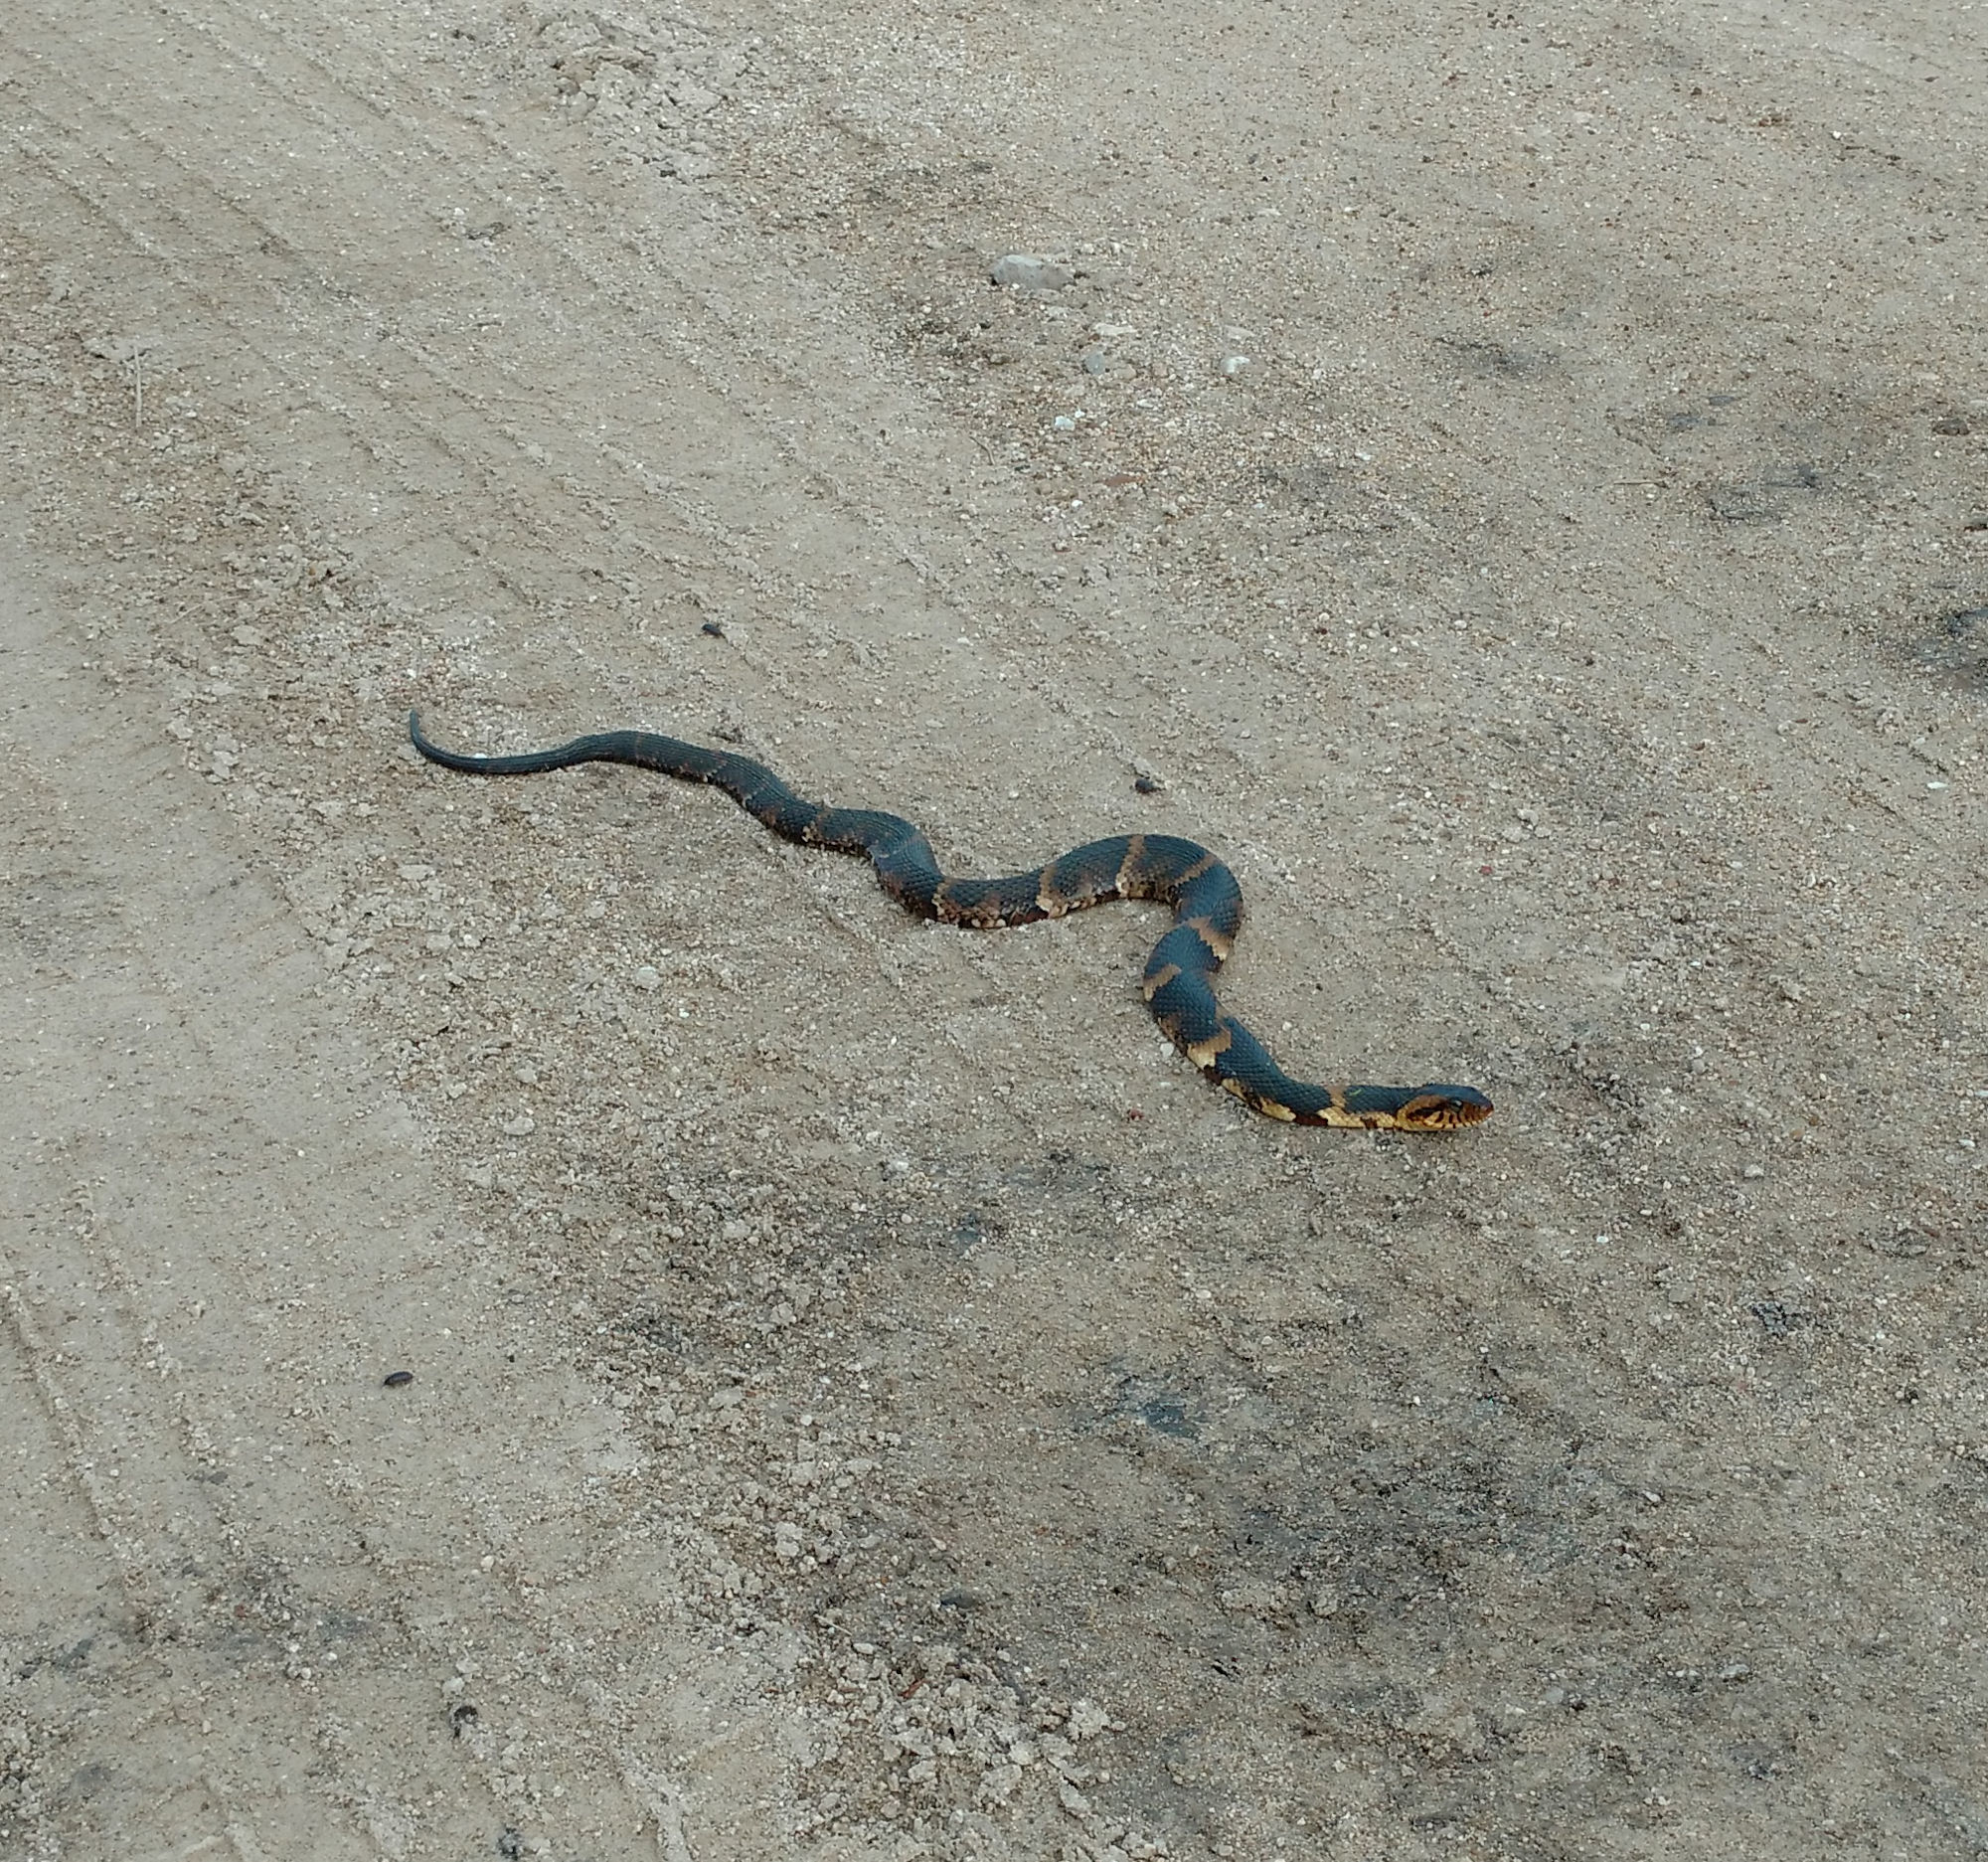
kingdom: Animalia
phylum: Chordata
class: Squamata
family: Colubridae
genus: Nerodia
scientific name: Nerodia fasciata
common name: Southern water snake
